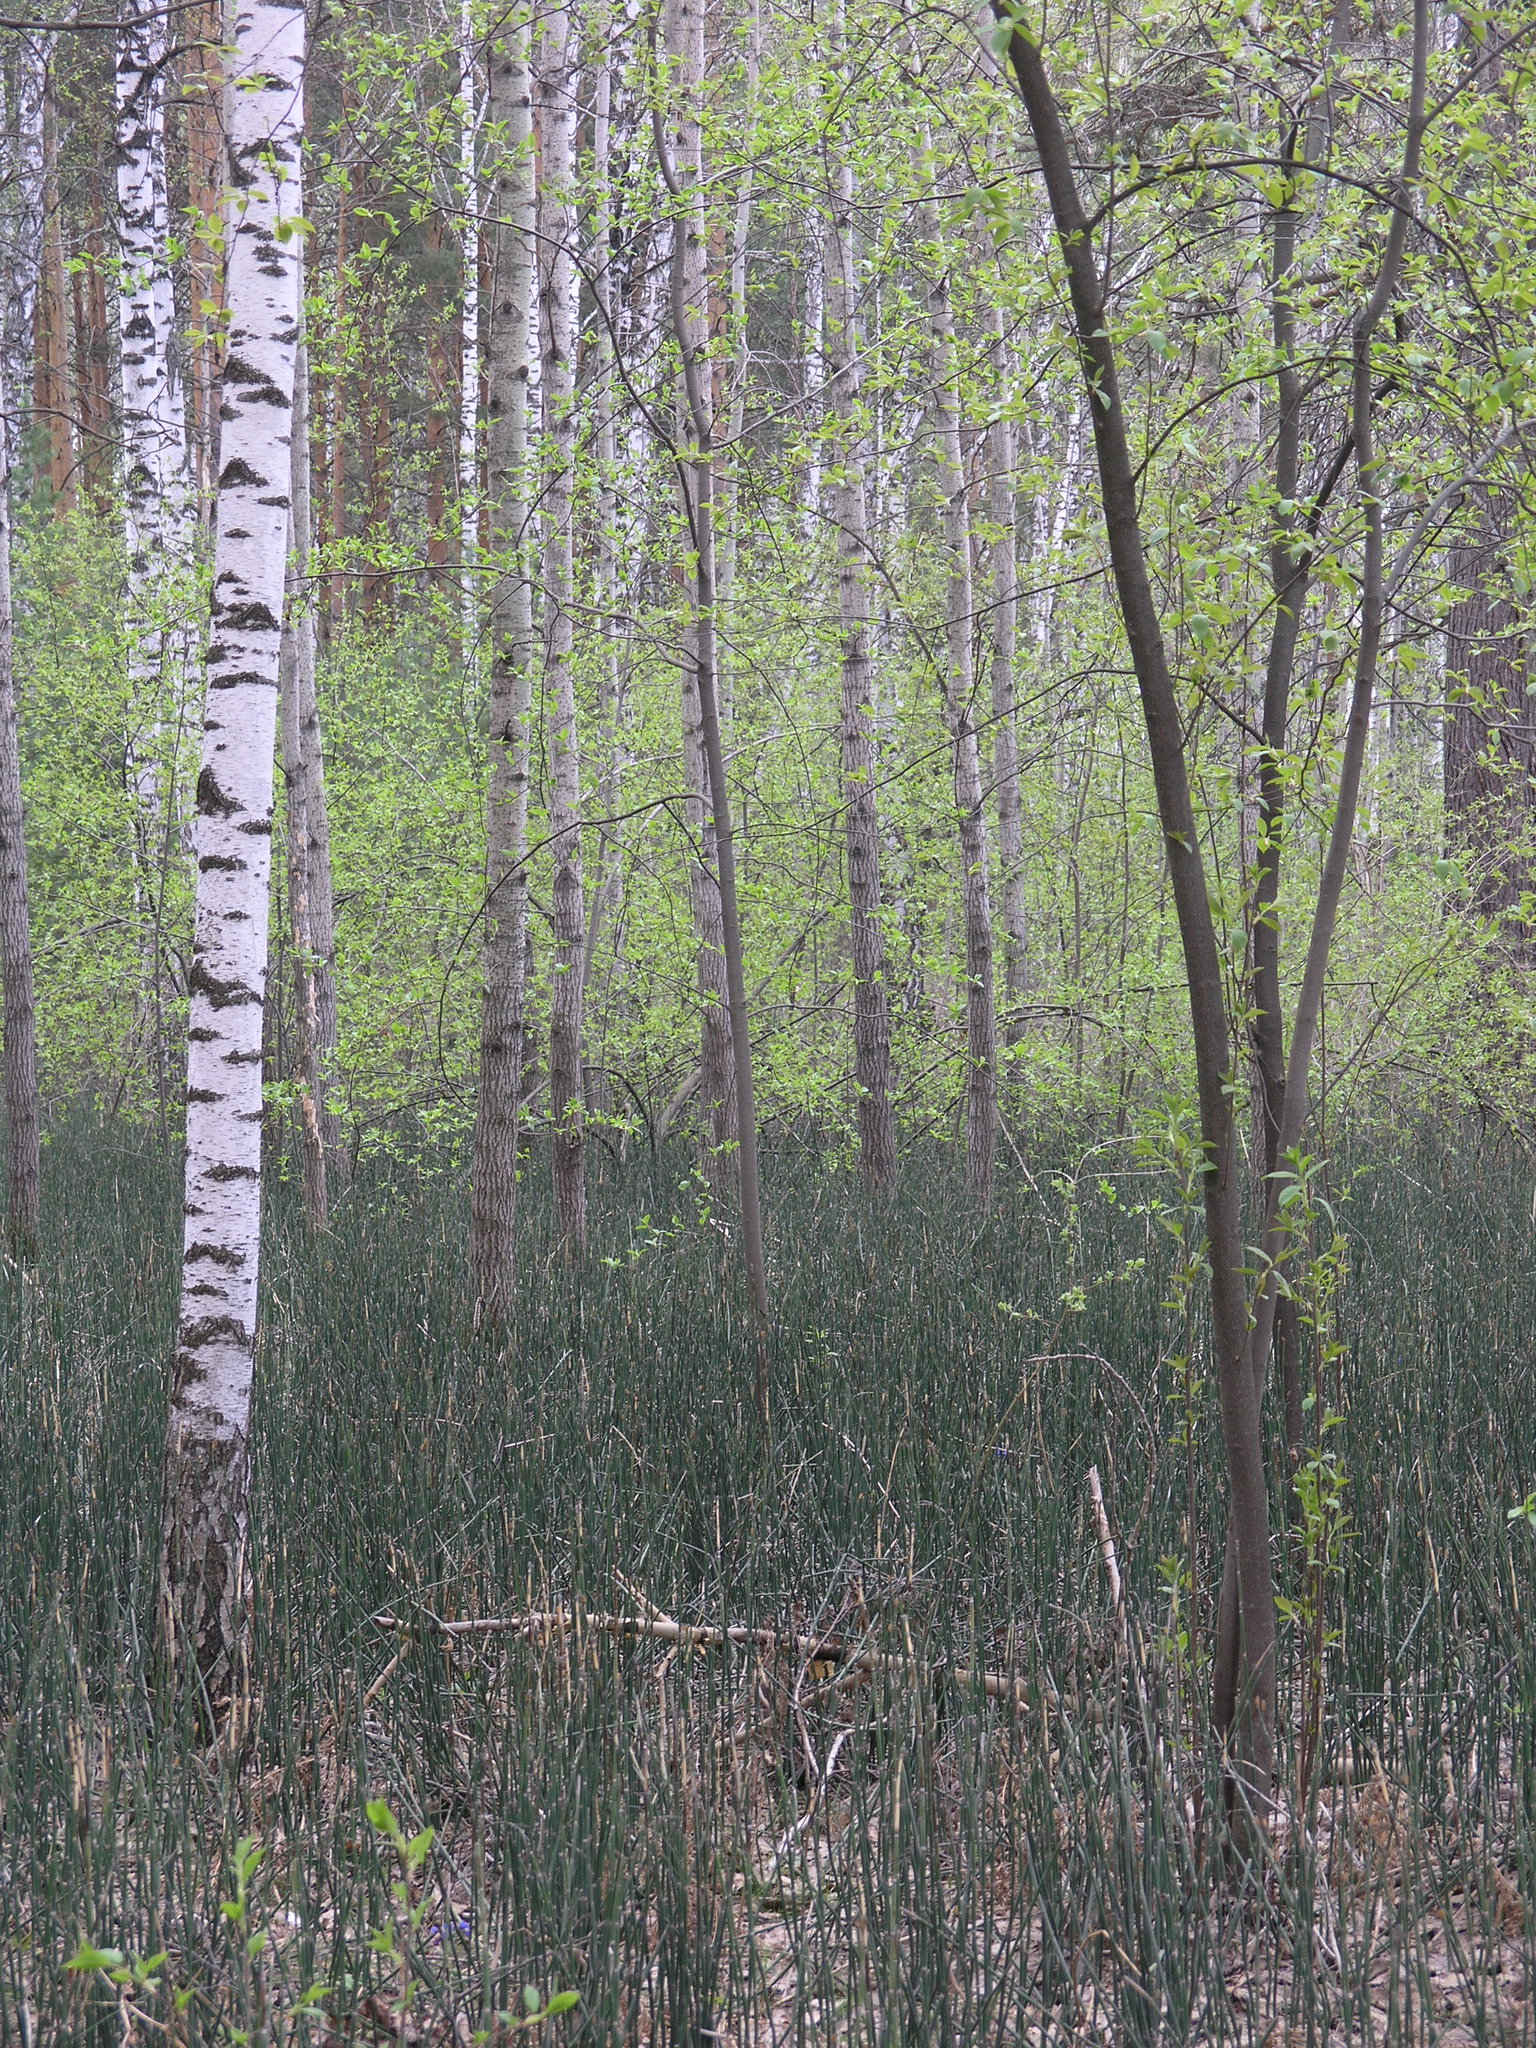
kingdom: Plantae
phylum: Tracheophyta
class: Polypodiopsida
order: Equisetales
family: Equisetaceae
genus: Equisetum
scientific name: Equisetum hyemale
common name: Rough horsetail
